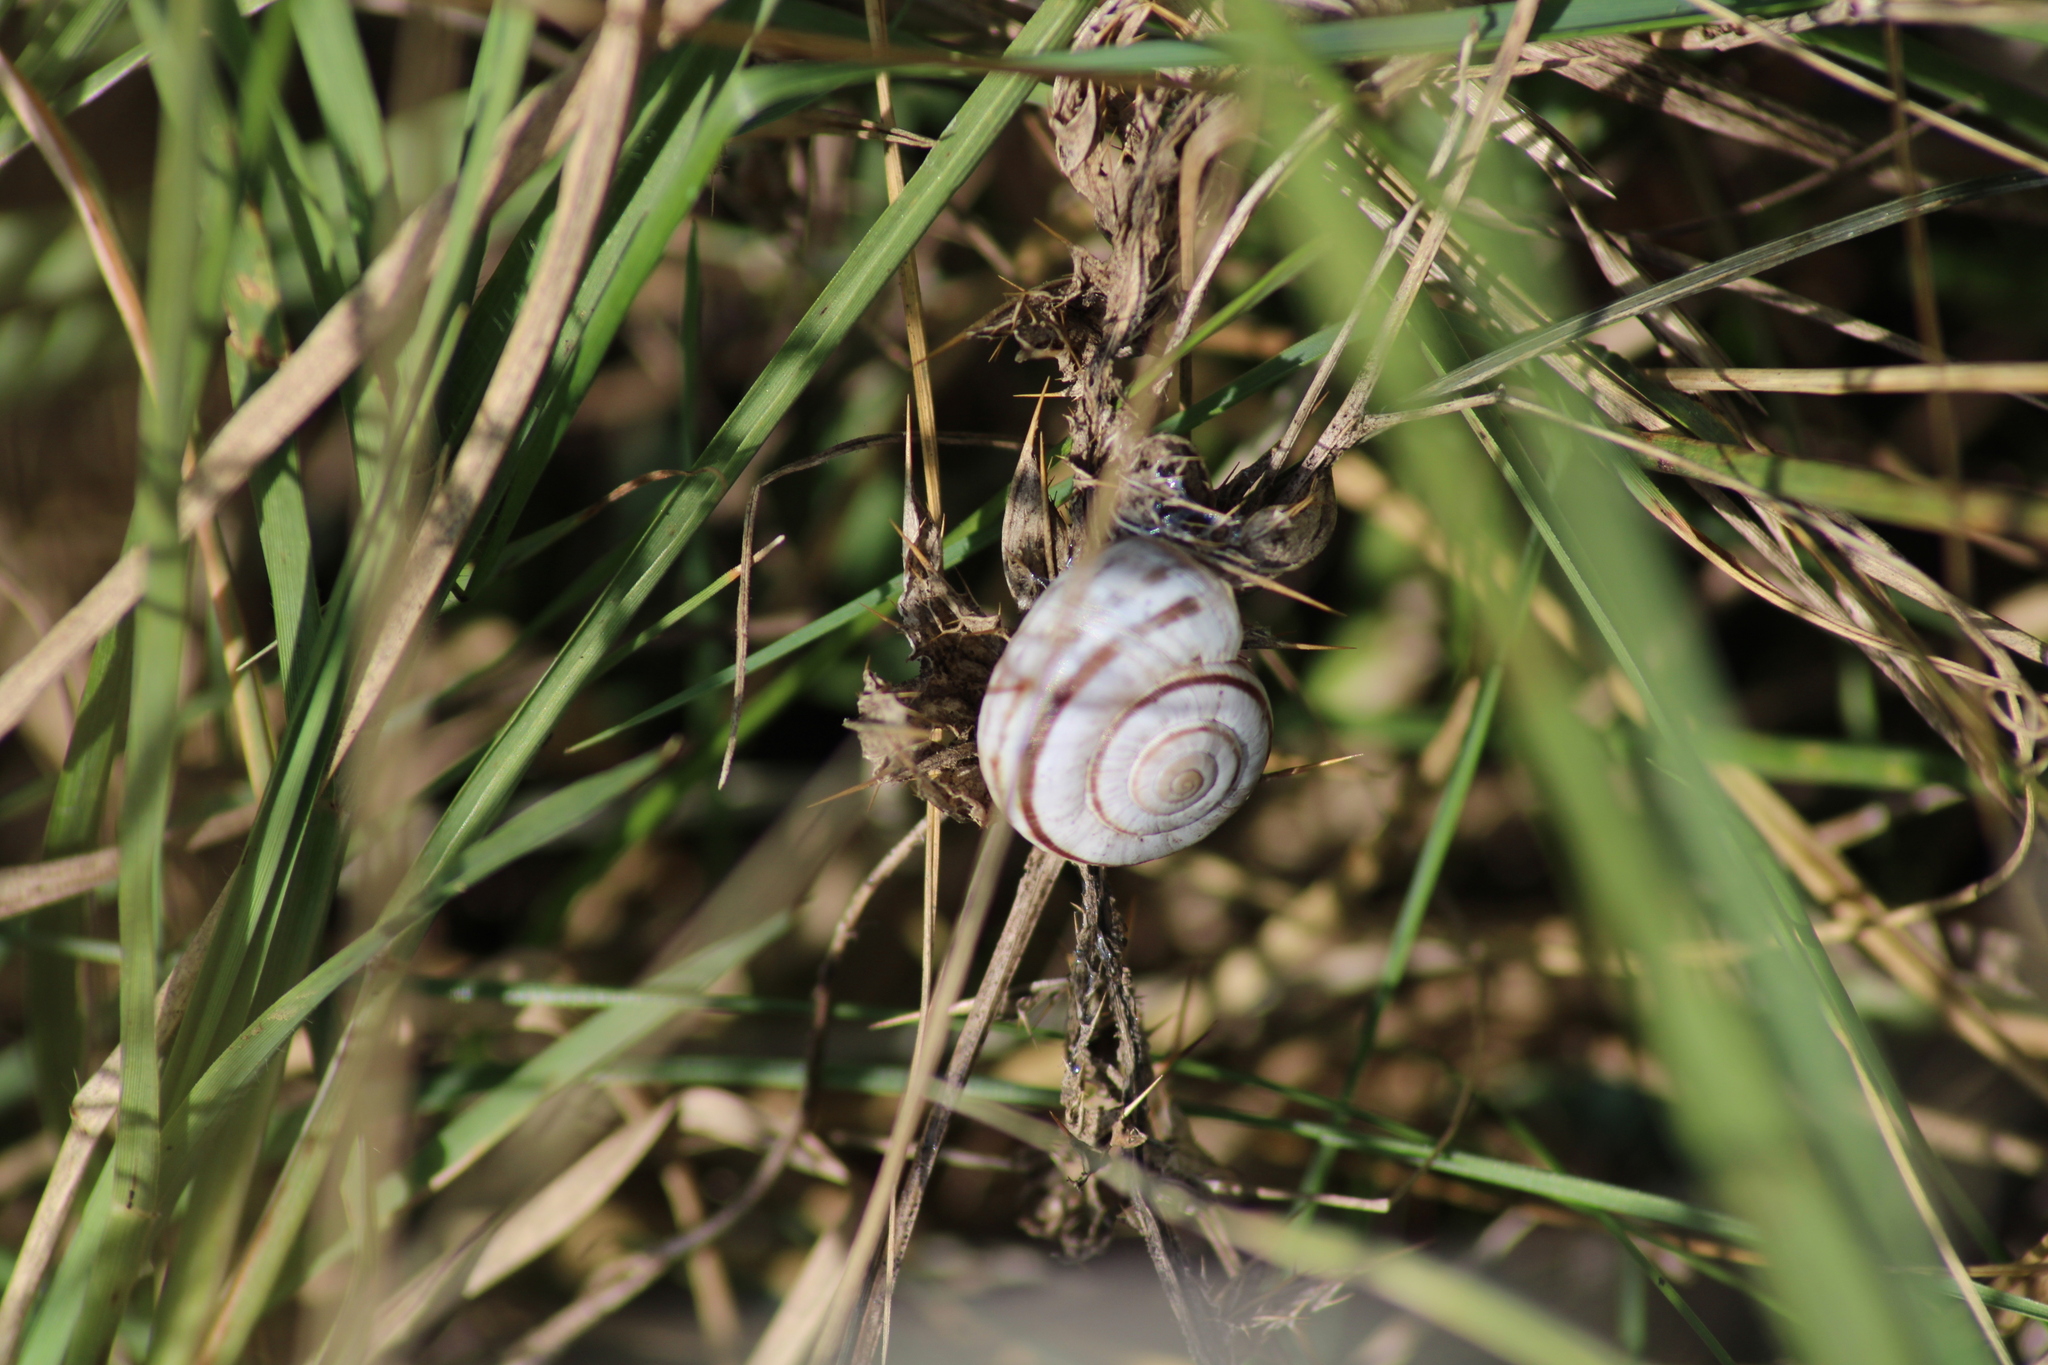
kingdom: Animalia
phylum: Mollusca
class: Gastropoda
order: Stylommatophora
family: Geomitridae
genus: Xerolenta
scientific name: Xerolenta obvia
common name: White heath snail
